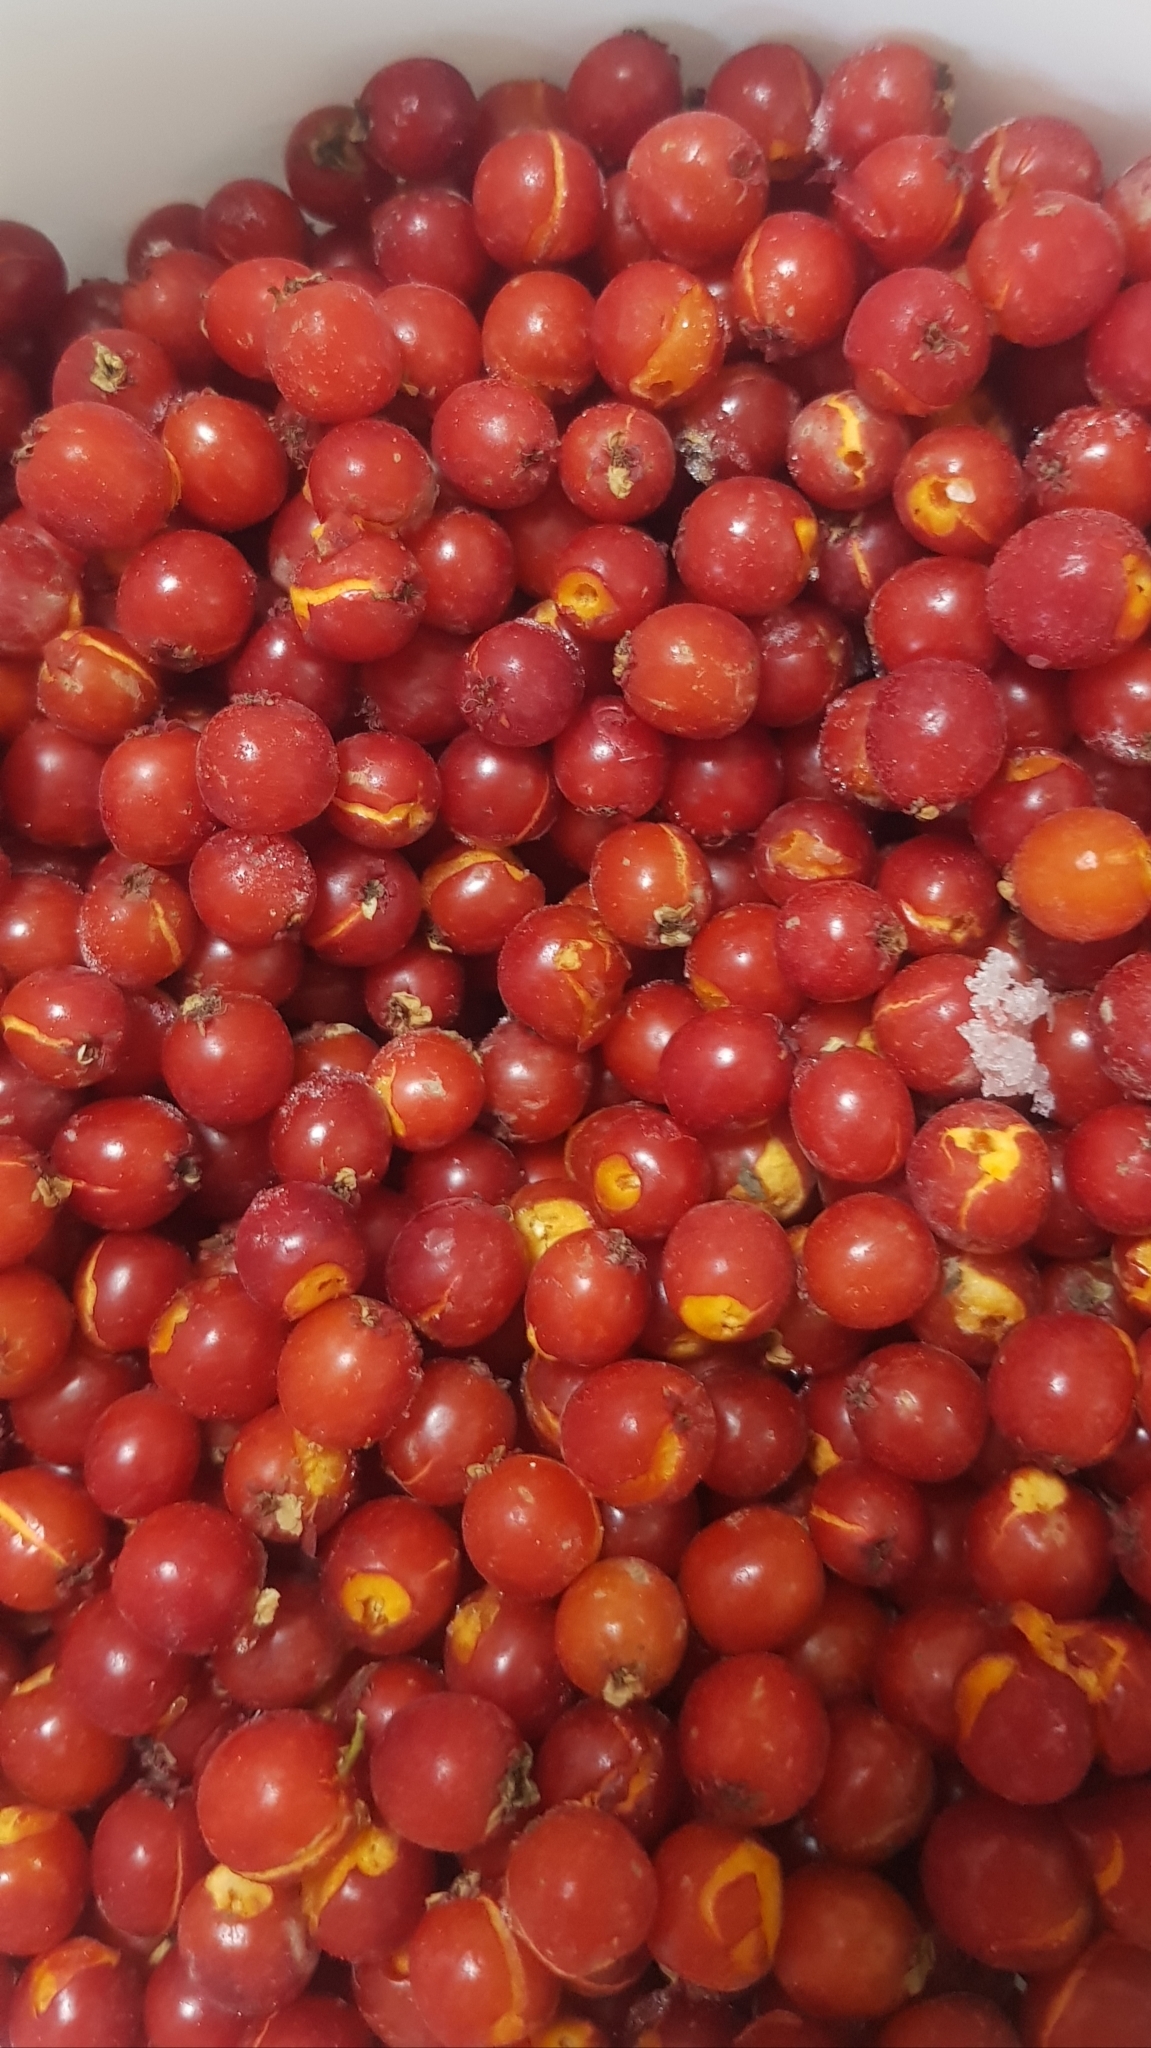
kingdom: Plantae
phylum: Tracheophyta
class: Magnoliopsida
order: Rosales
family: Rosaceae
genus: Crataegus
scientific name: Crataegus sanguinea
